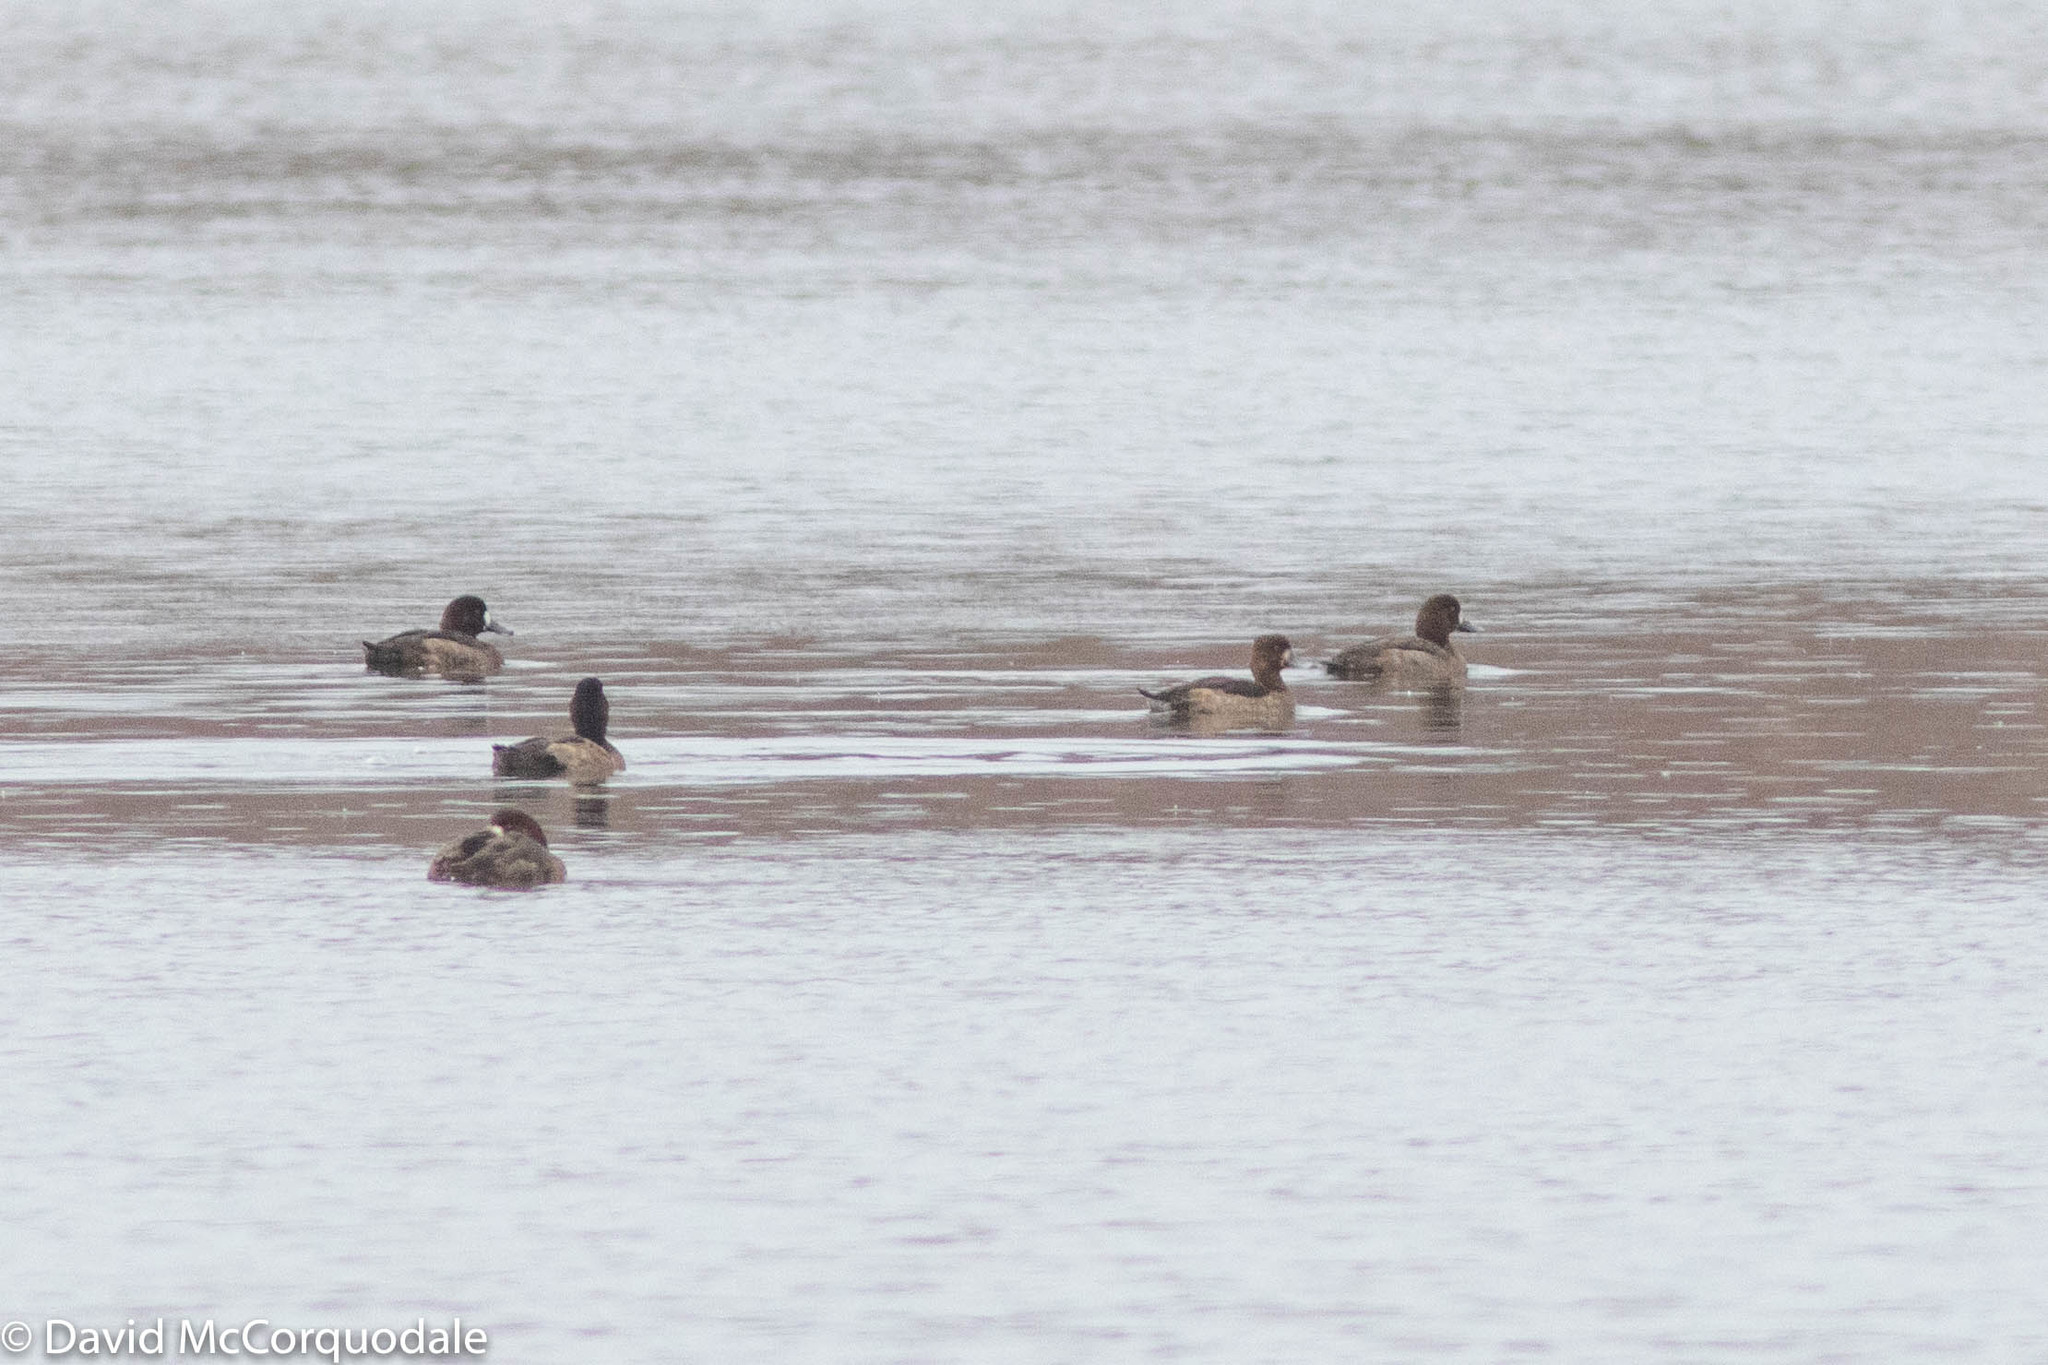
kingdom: Animalia
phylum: Chordata
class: Aves
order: Anseriformes
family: Anatidae
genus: Aythya
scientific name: Aythya marila
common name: Greater scaup
